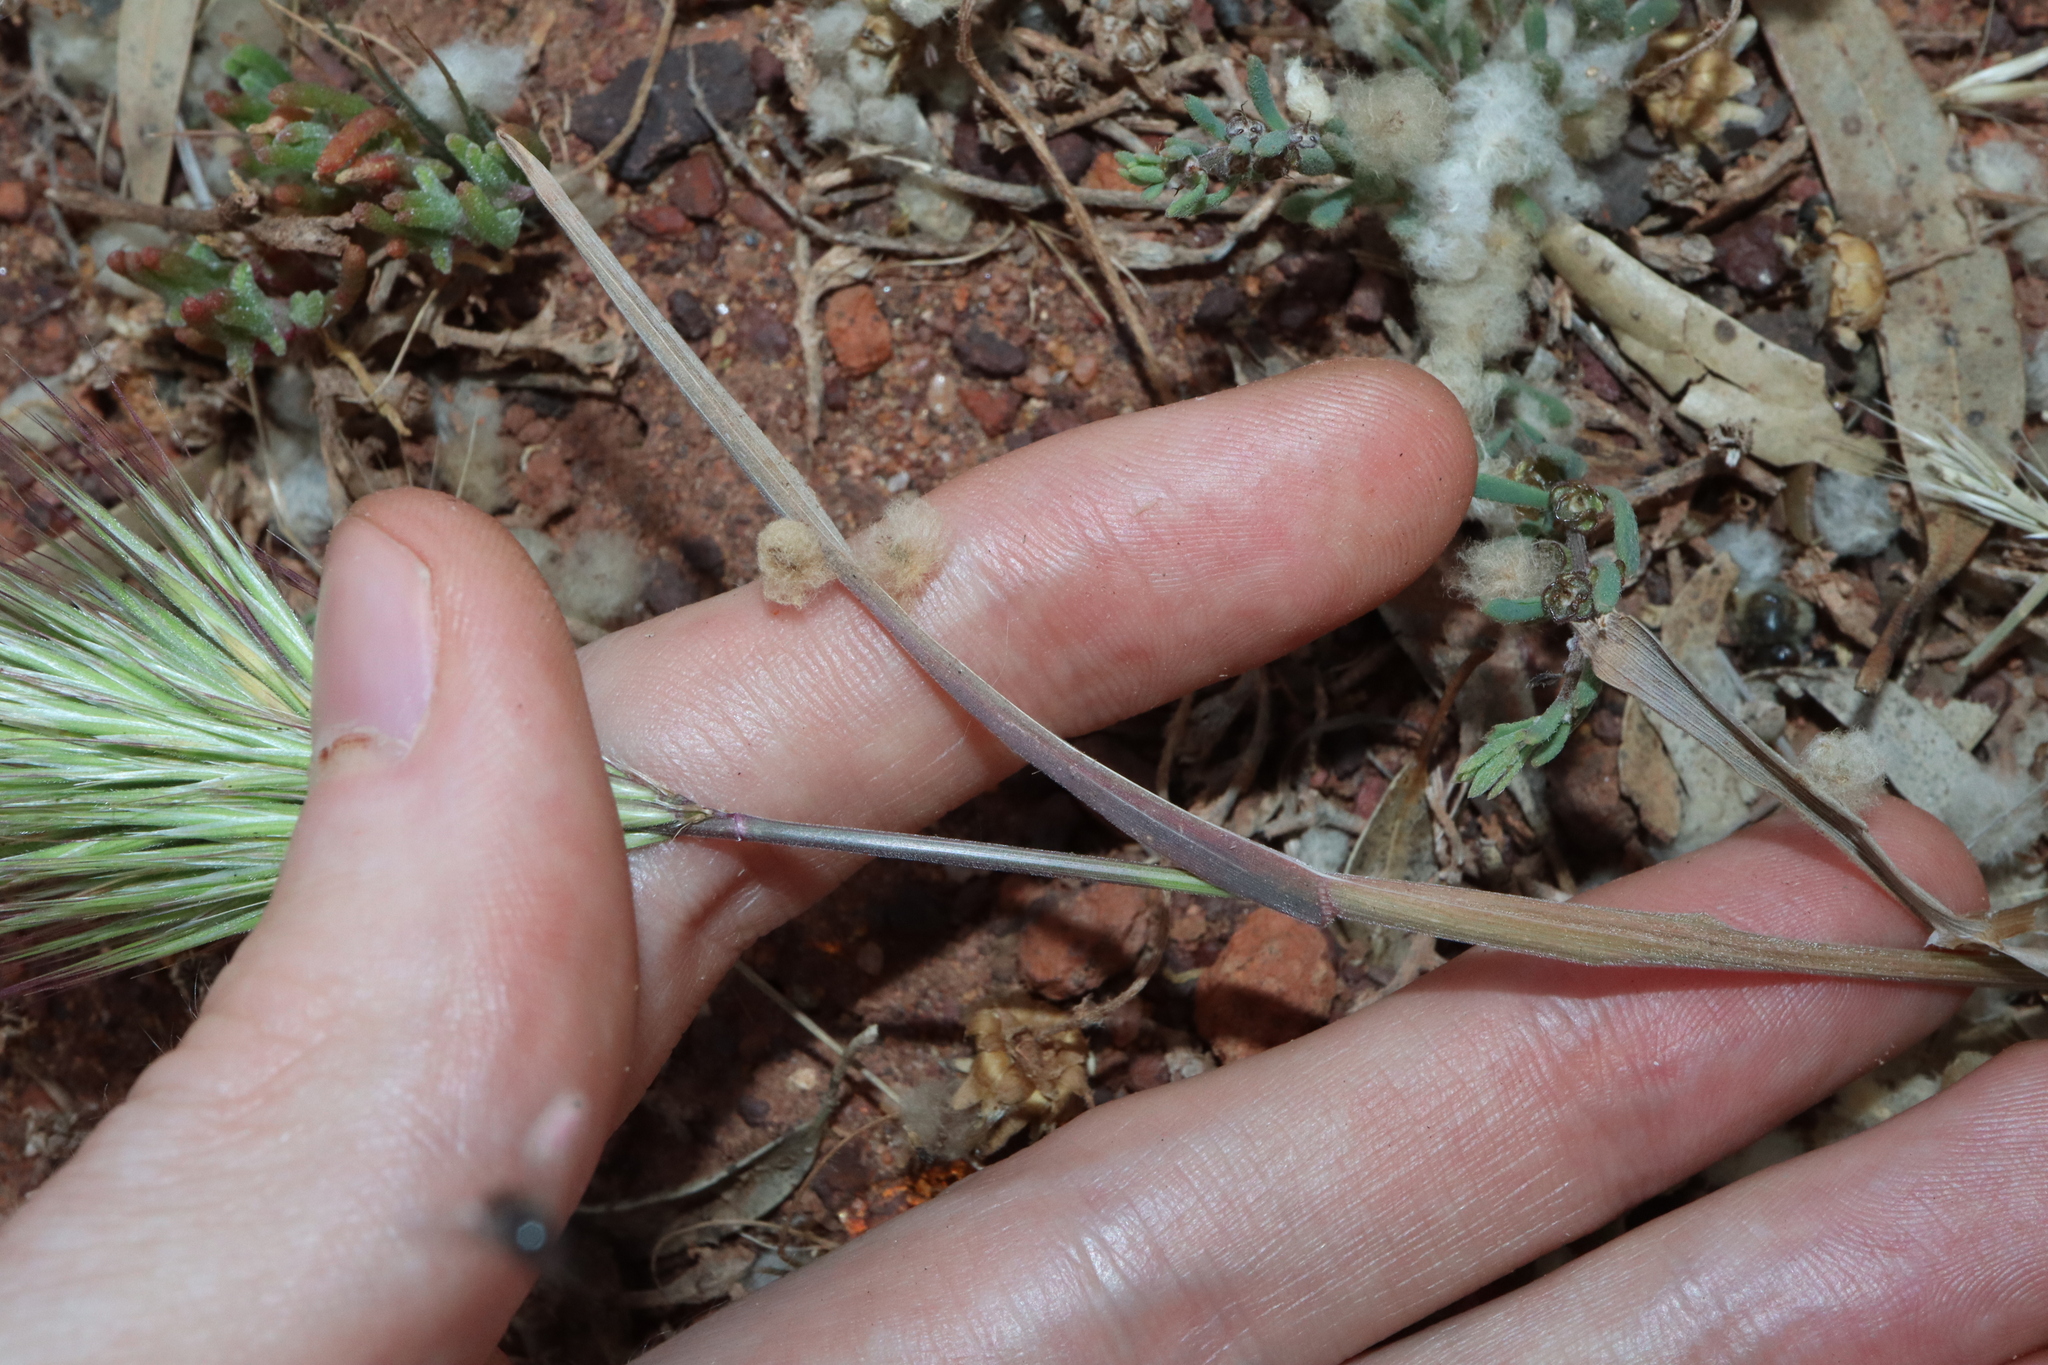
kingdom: Plantae
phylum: Tracheophyta
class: Liliopsida
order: Poales
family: Poaceae
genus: Bromus
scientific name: Bromus rubens
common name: Red brome
